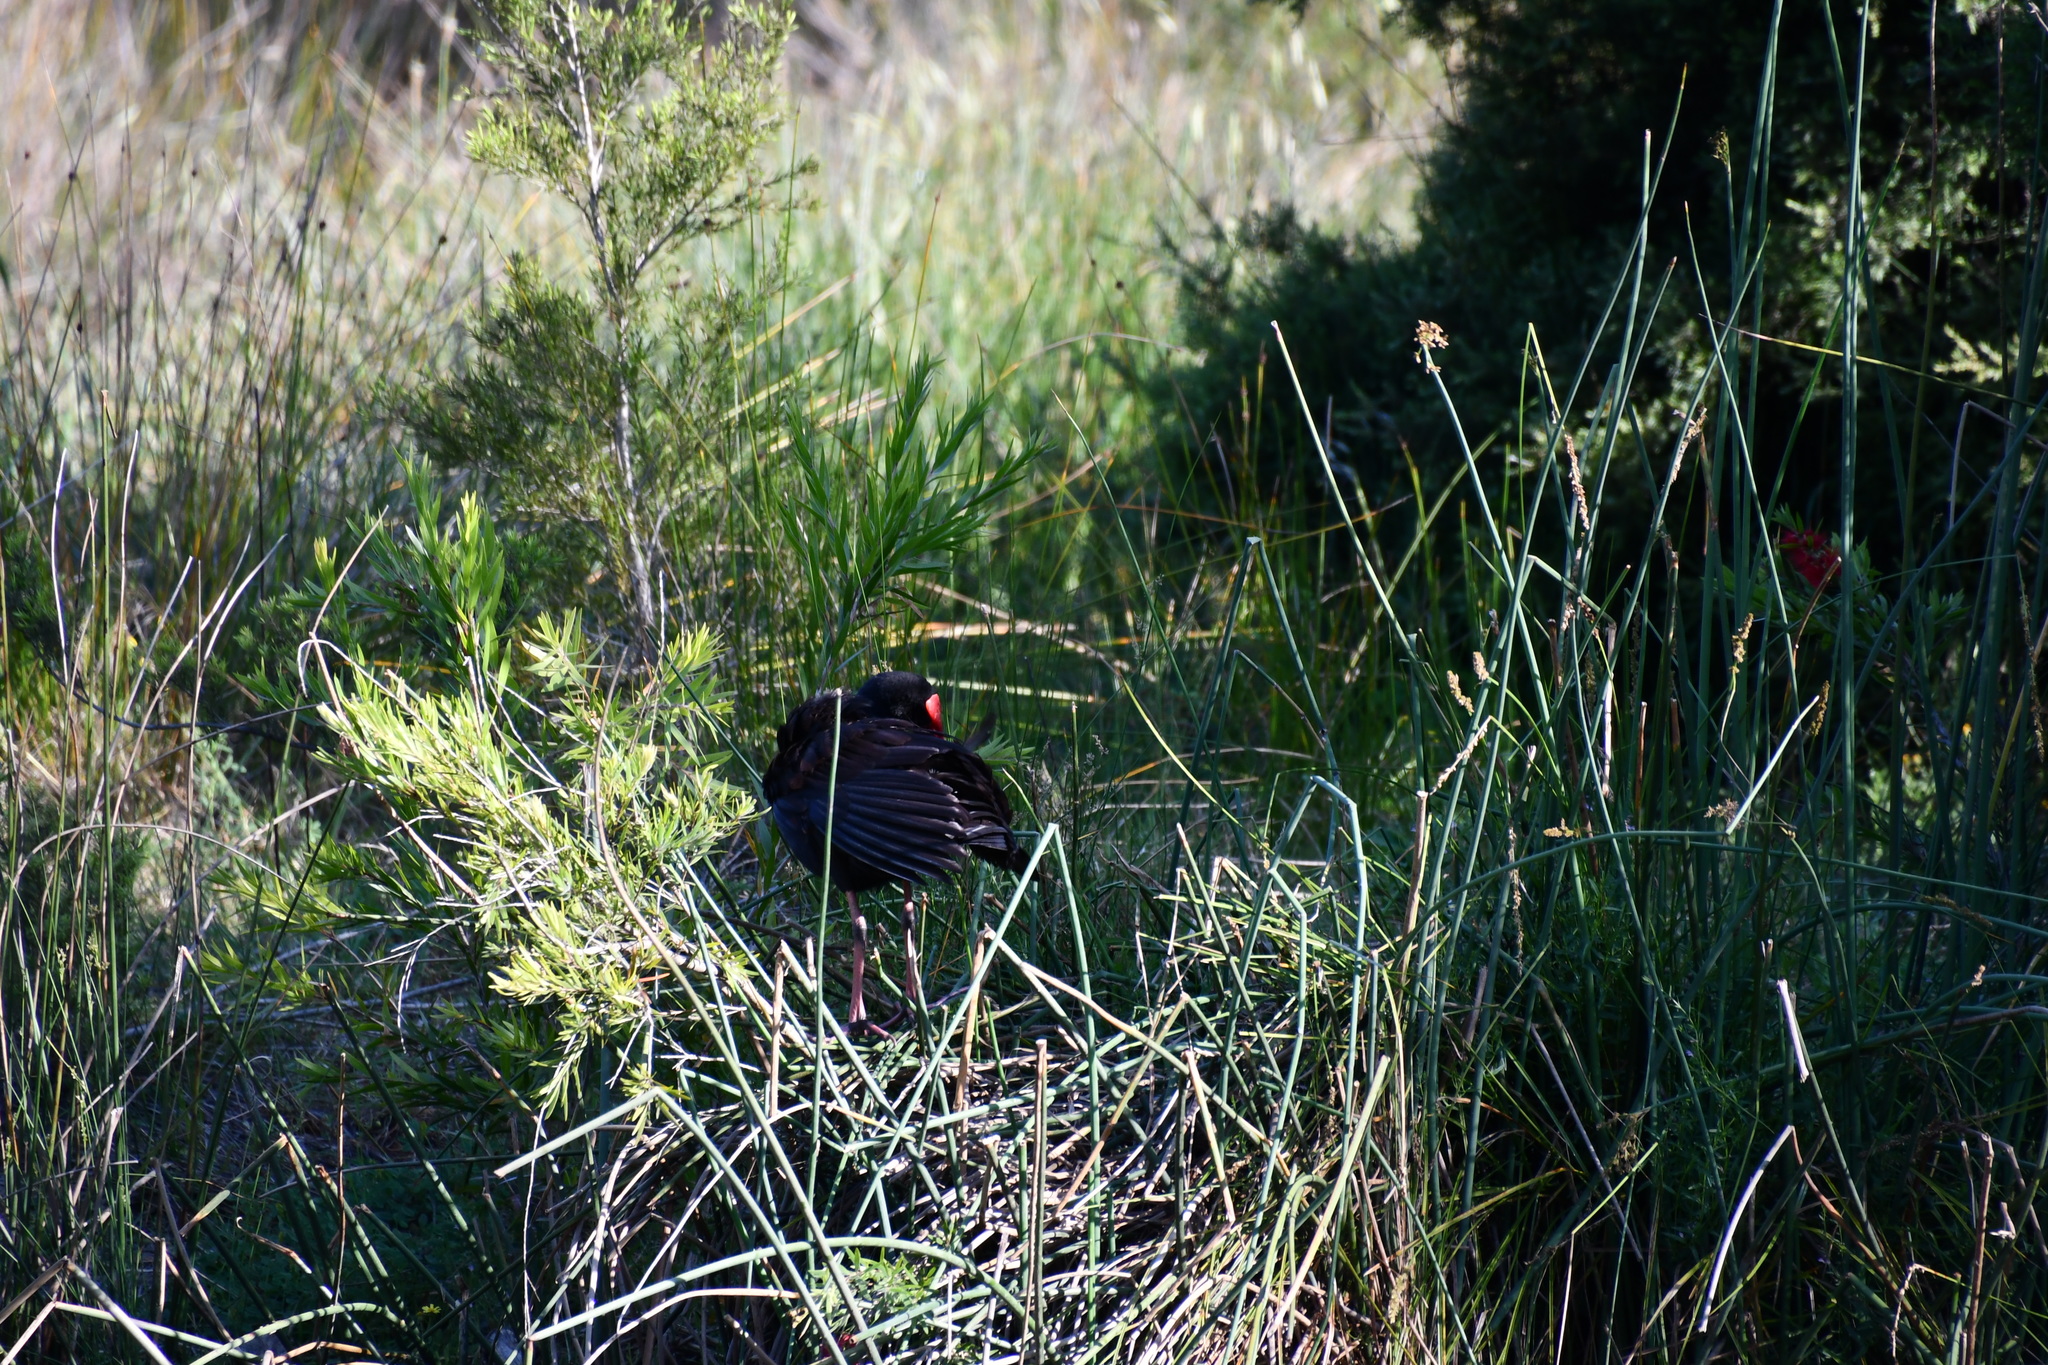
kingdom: Animalia
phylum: Chordata
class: Aves
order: Gruiformes
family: Rallidae
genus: Porphyrio
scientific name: Porphyrio melanotus
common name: Australasian swamphen
